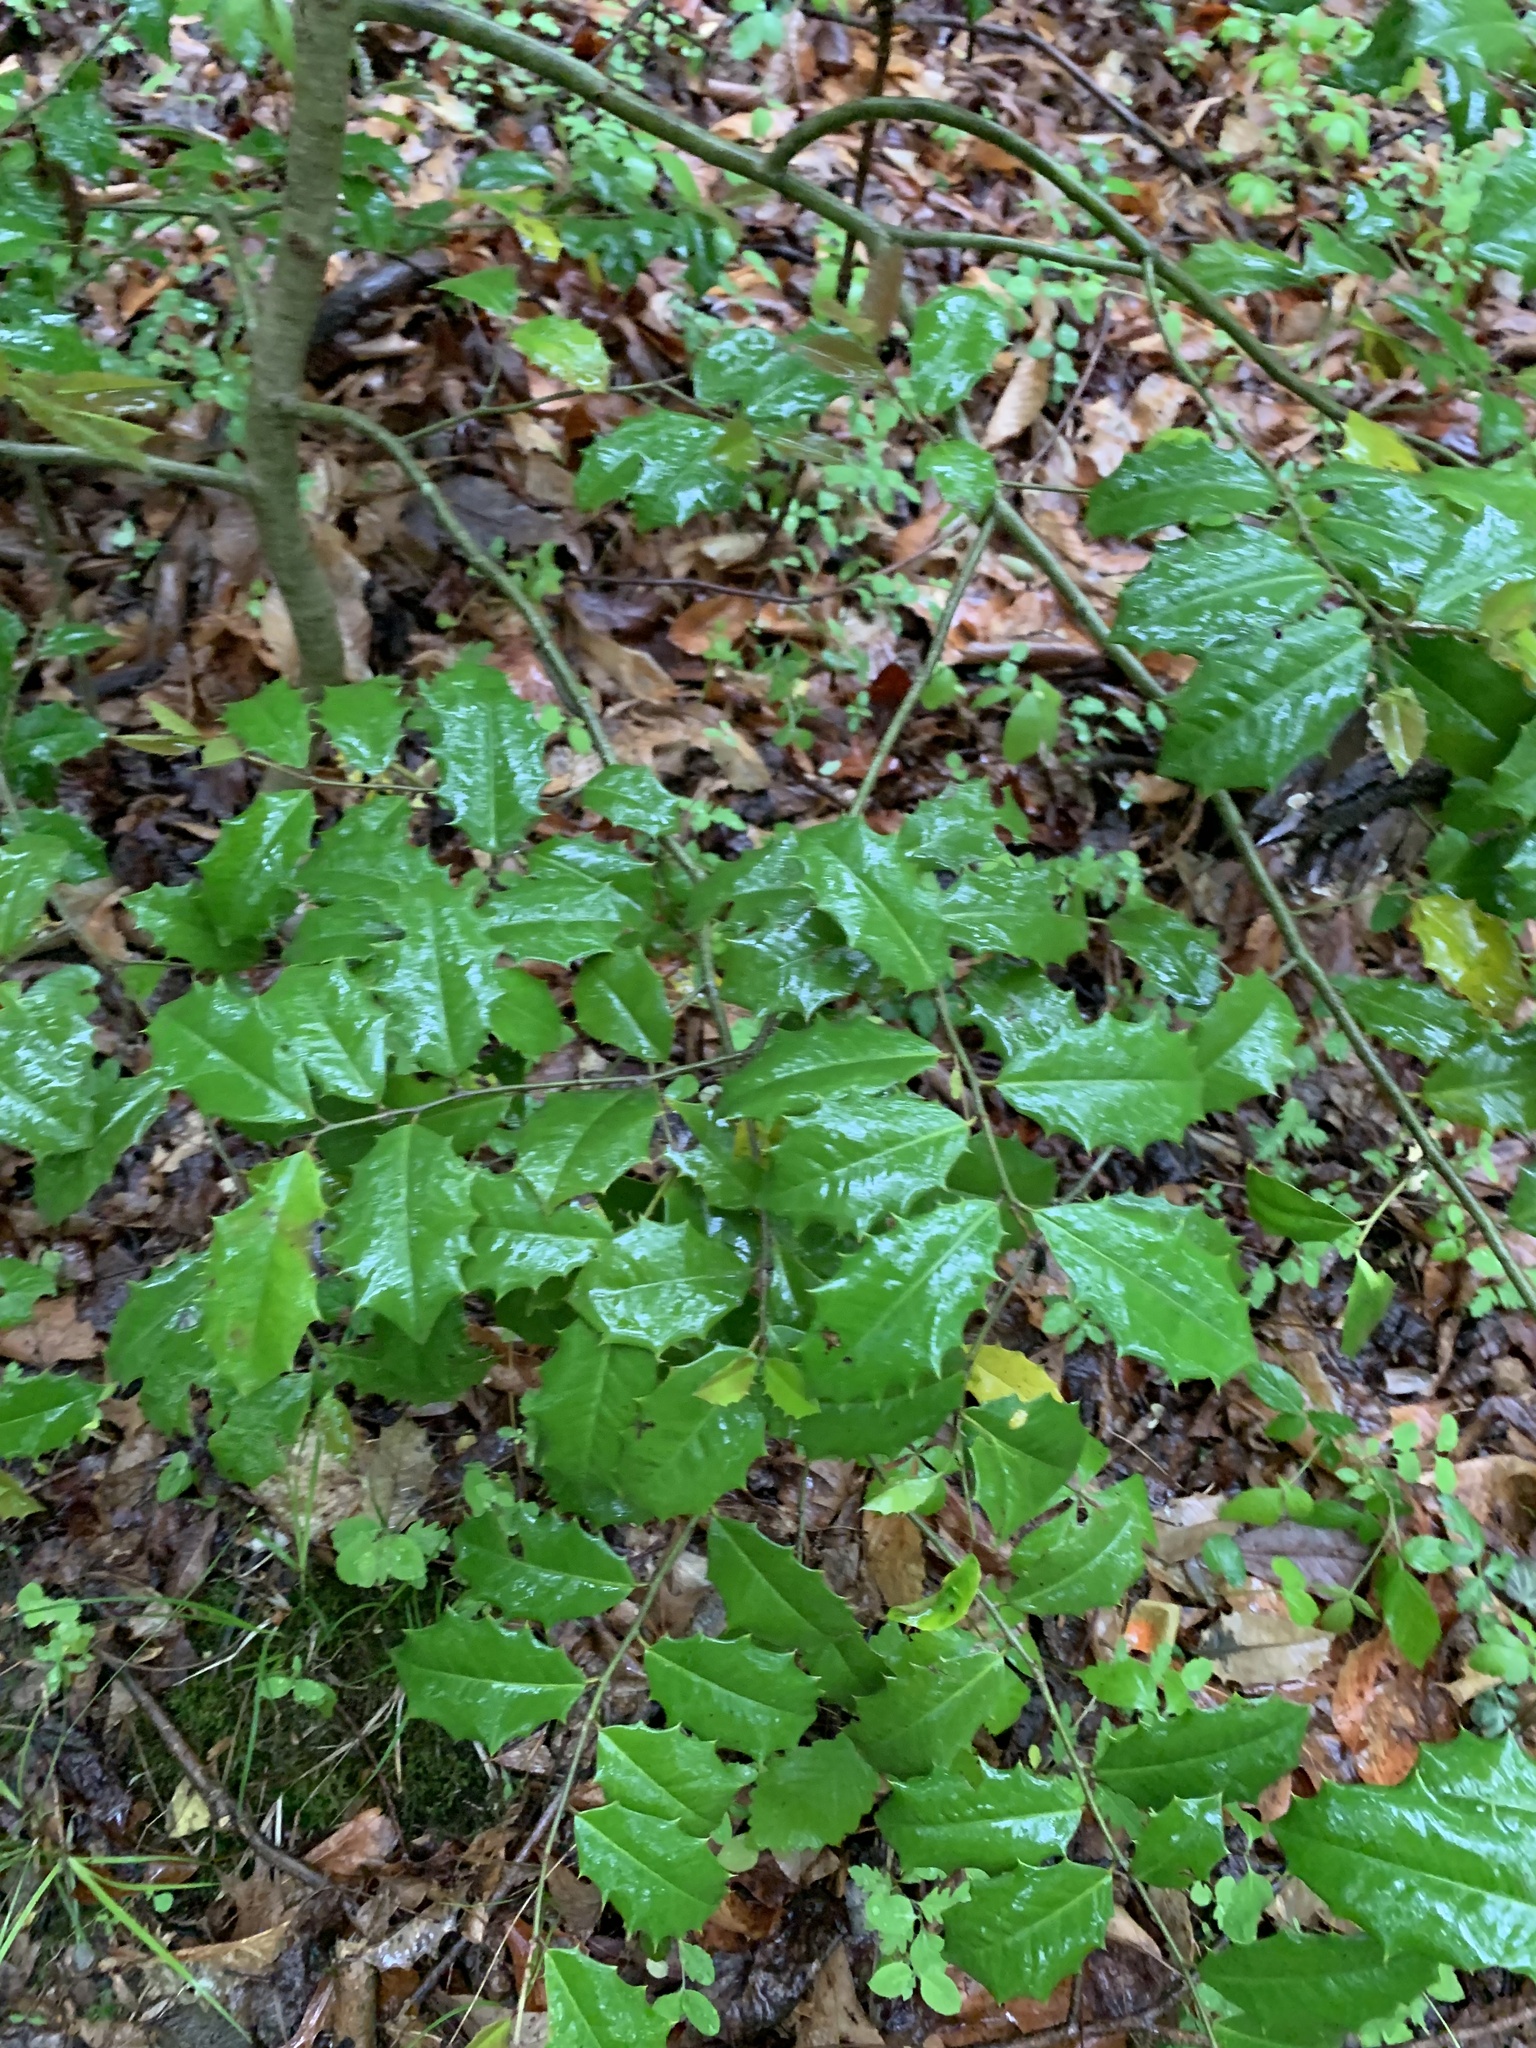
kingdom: Plantae
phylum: Tracheophyta
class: Magnoliopsida
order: Aquifoliales
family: Aquifoliaceae
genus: Ilex
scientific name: Ilex opaca
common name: American holly
